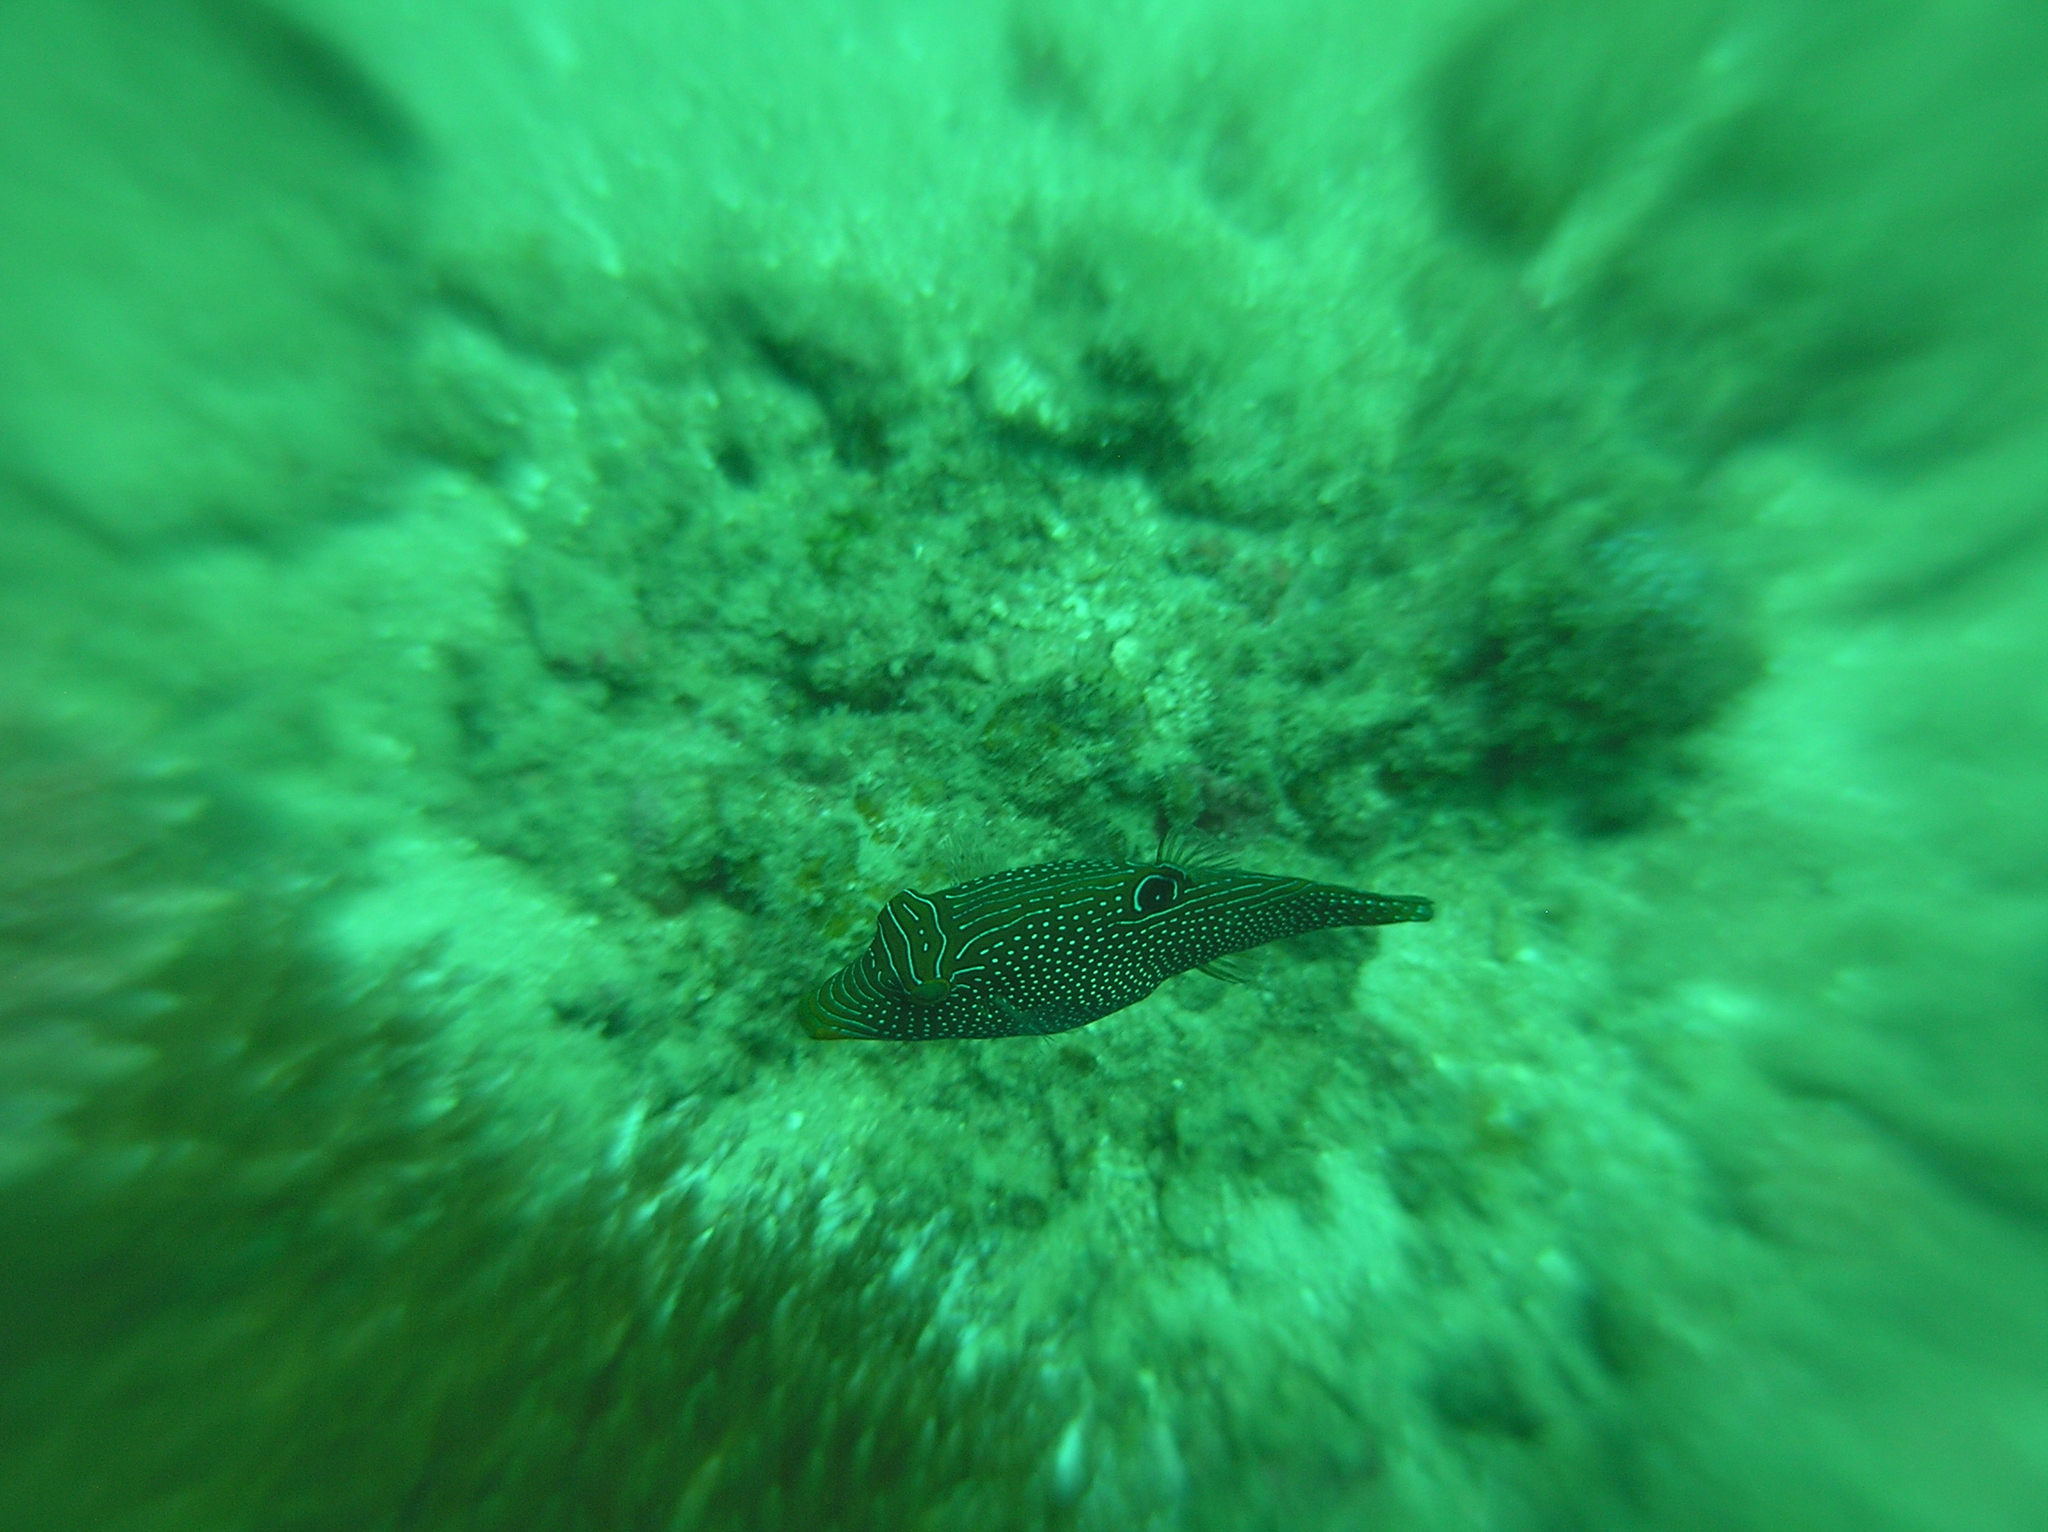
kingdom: Animalia
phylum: Chordata
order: Tetraodontiformes
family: Tetraodontidae
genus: Canthigaster
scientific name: Canthigaster papua
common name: False-eyed pufferfish
